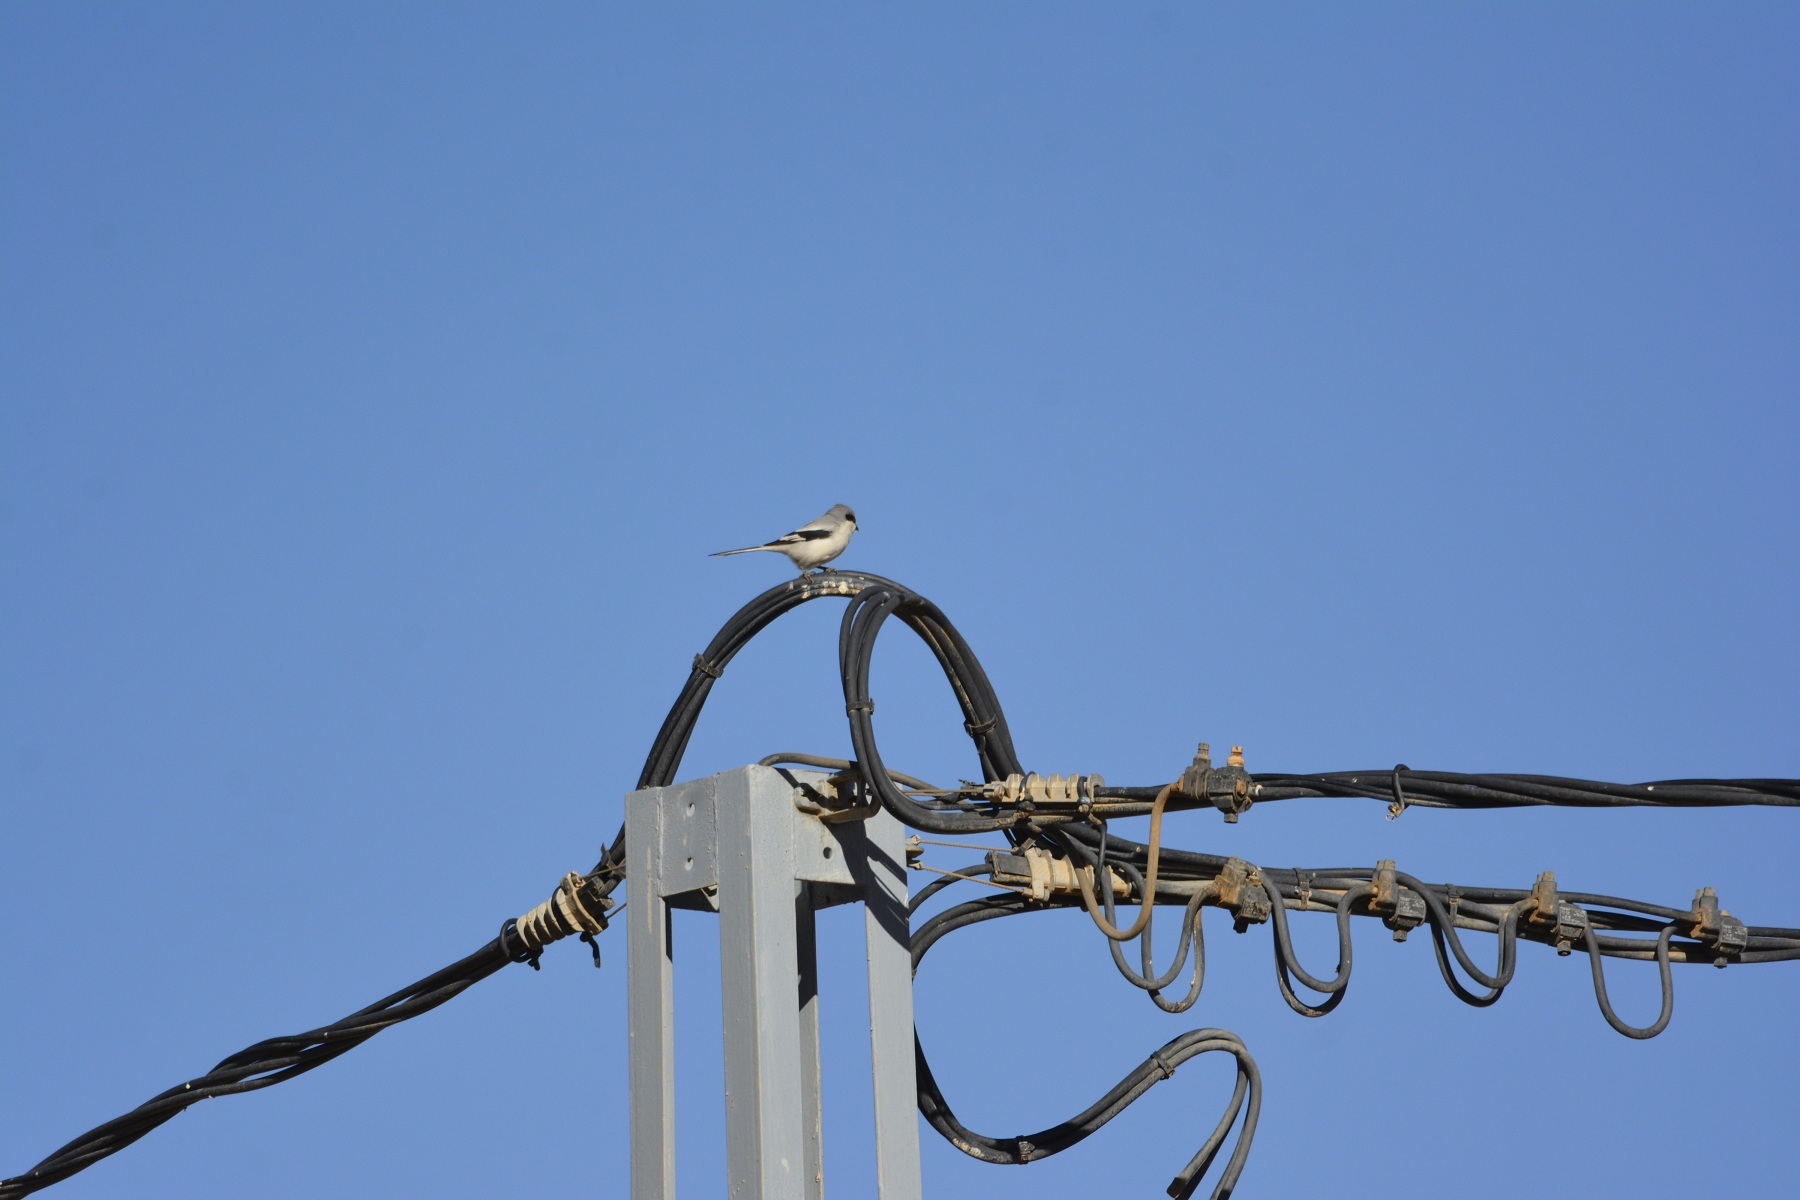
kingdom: Animalia
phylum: Chordata
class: Aves
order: Passeriformes
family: Laniidae
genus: Lanius
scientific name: Lanius excubitor
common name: Great grey shrike
